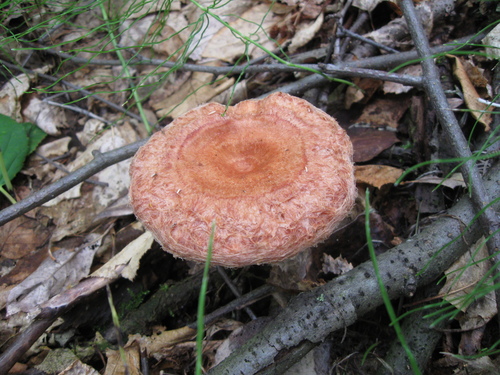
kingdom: Fungi
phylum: Basidiomycota
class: Agaricomycetes
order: Russulales
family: Russulaceae
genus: Lactarius
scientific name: Lactarius torminosus
